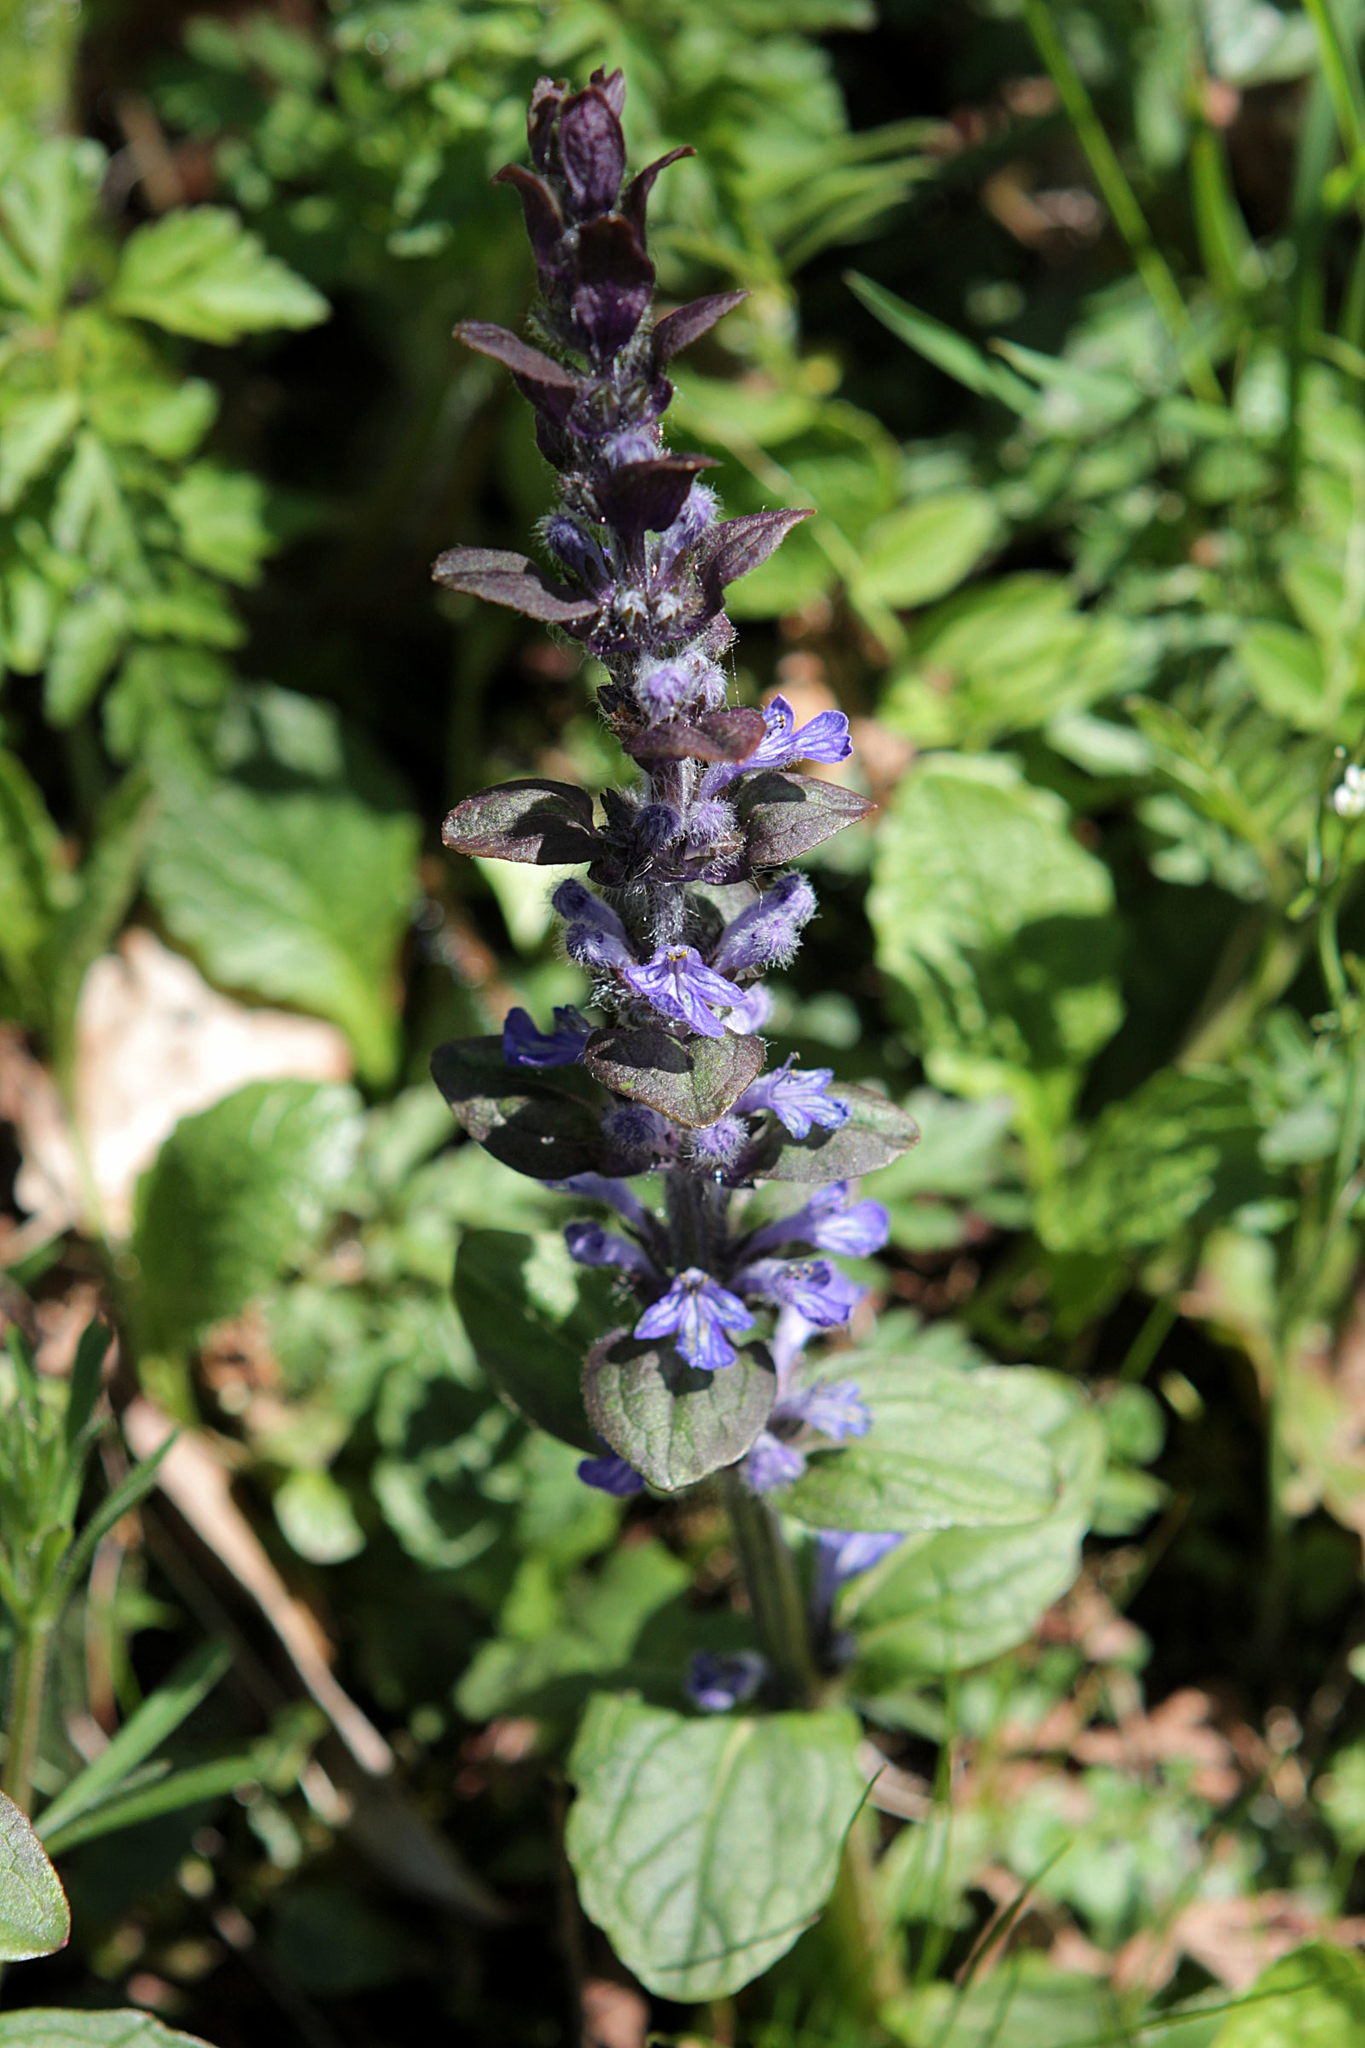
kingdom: Plantae
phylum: Tracheophyta
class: Magnoliopsida
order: Lamiales
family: Lamiaceae
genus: Ajuga
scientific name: Ajuga reptans
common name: Bugle
